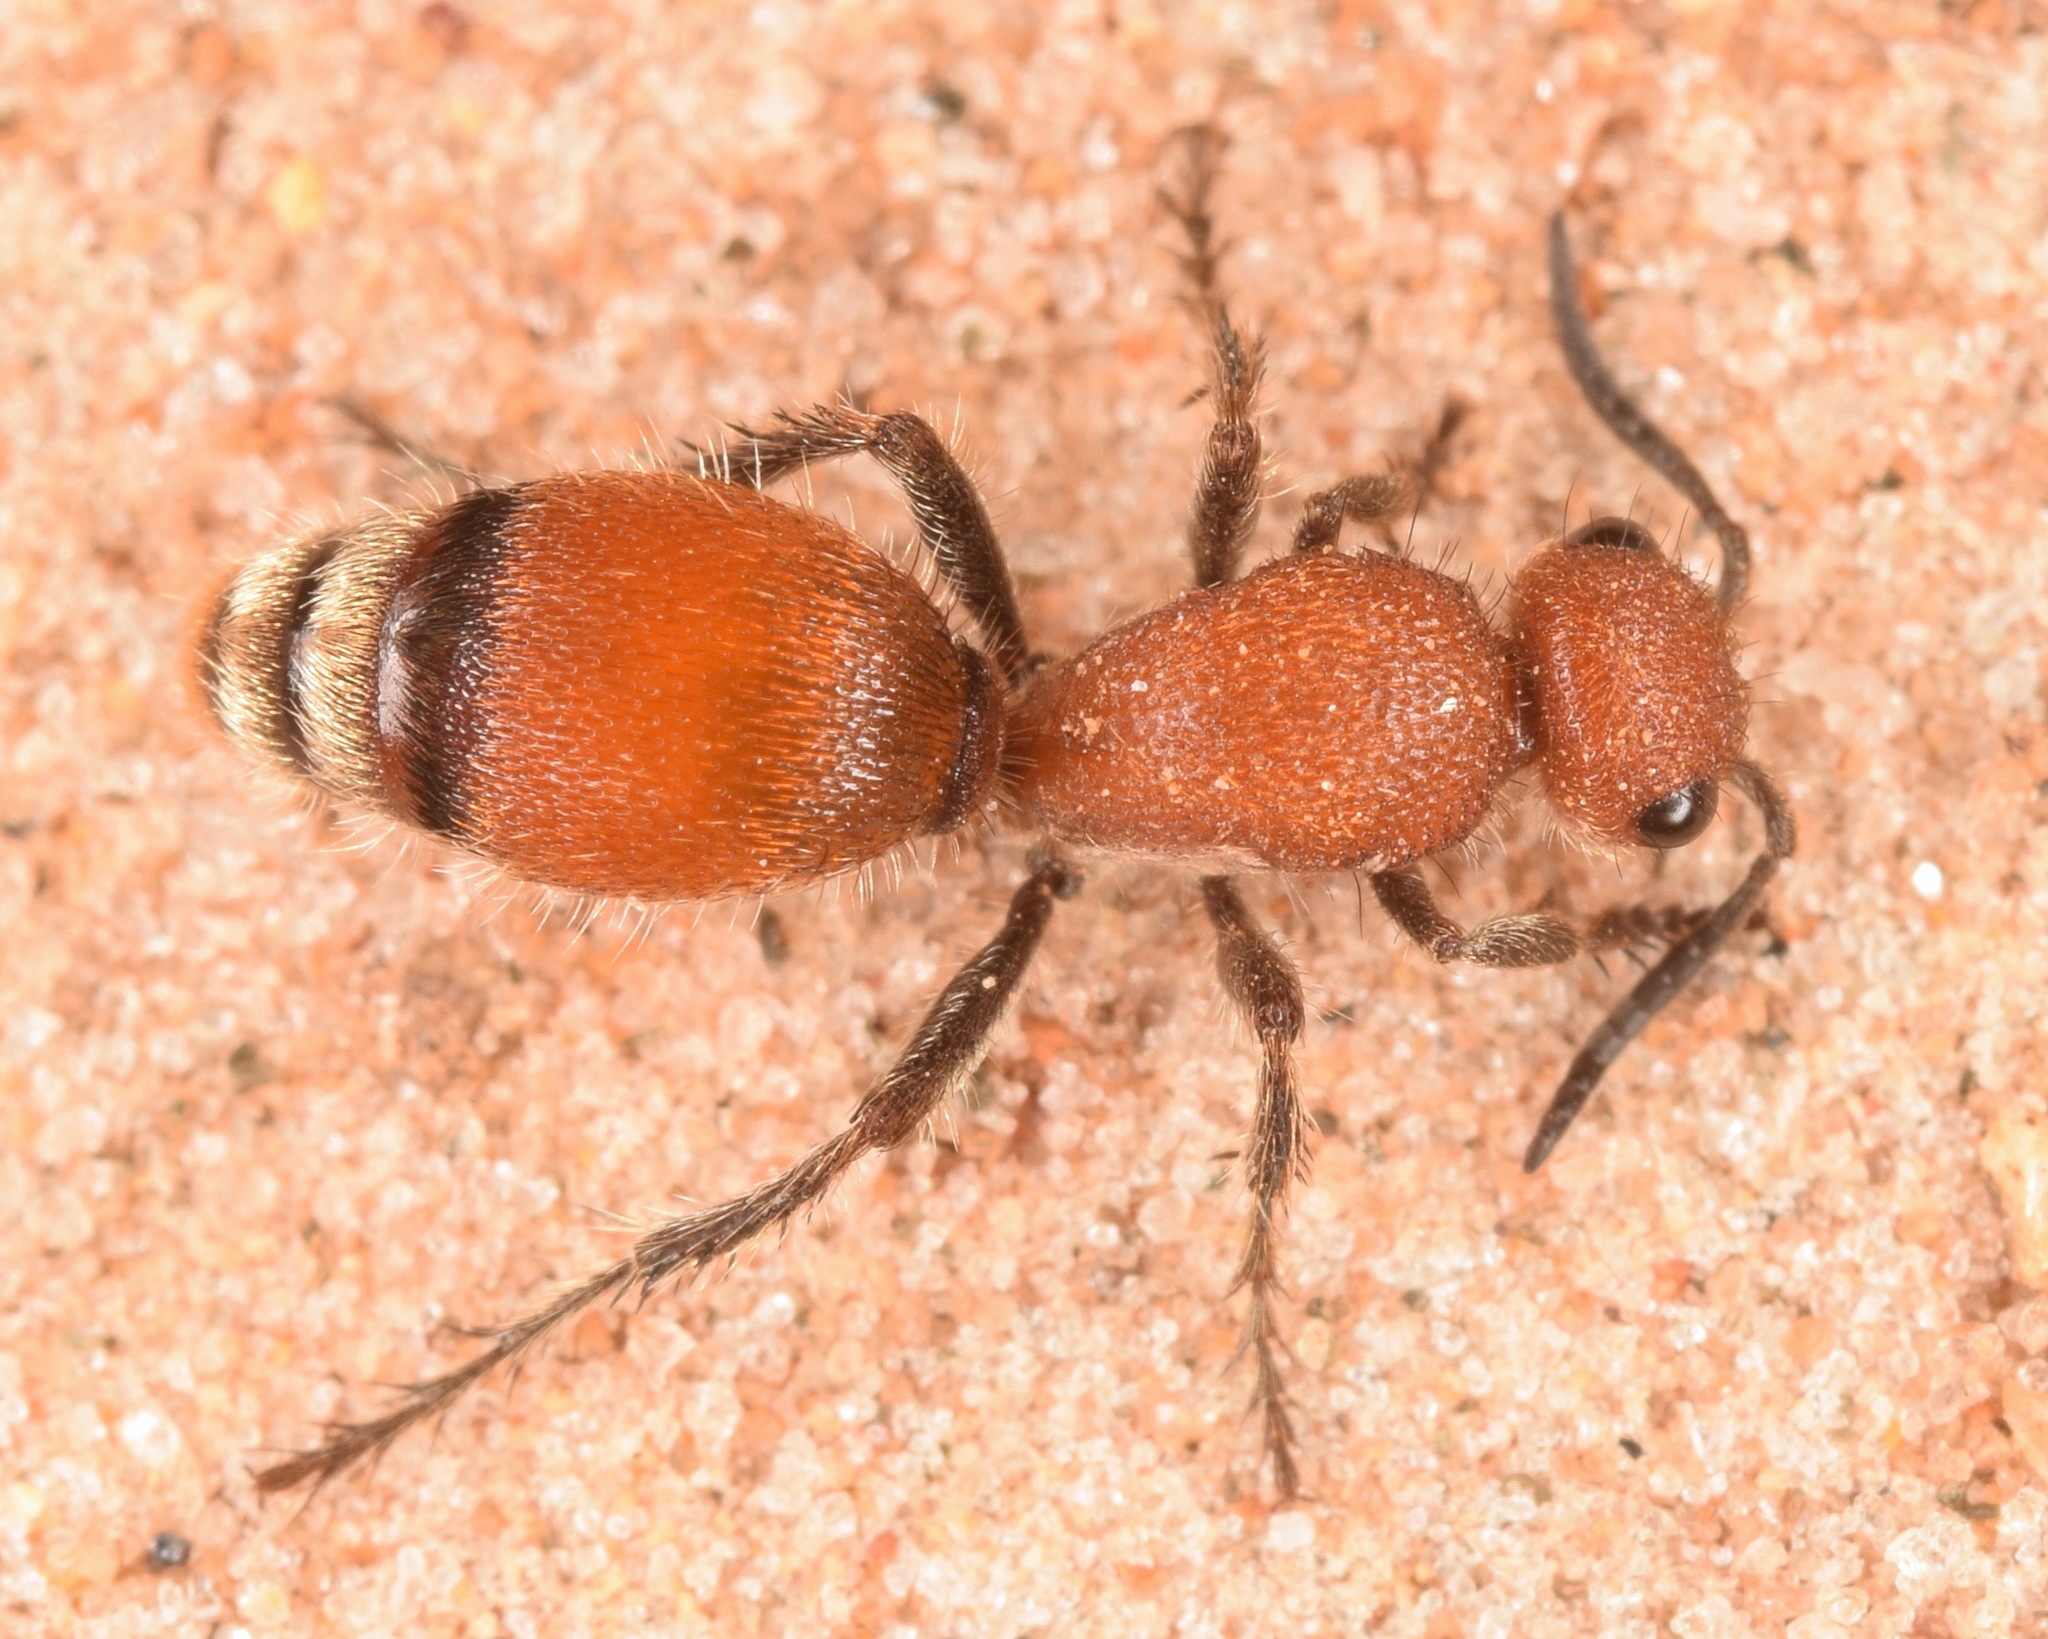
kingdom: Animalia
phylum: Arthropoda
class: Insecta
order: Hymenoptera
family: Mutillidae
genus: Dasymutilla
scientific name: Dasymutilla
